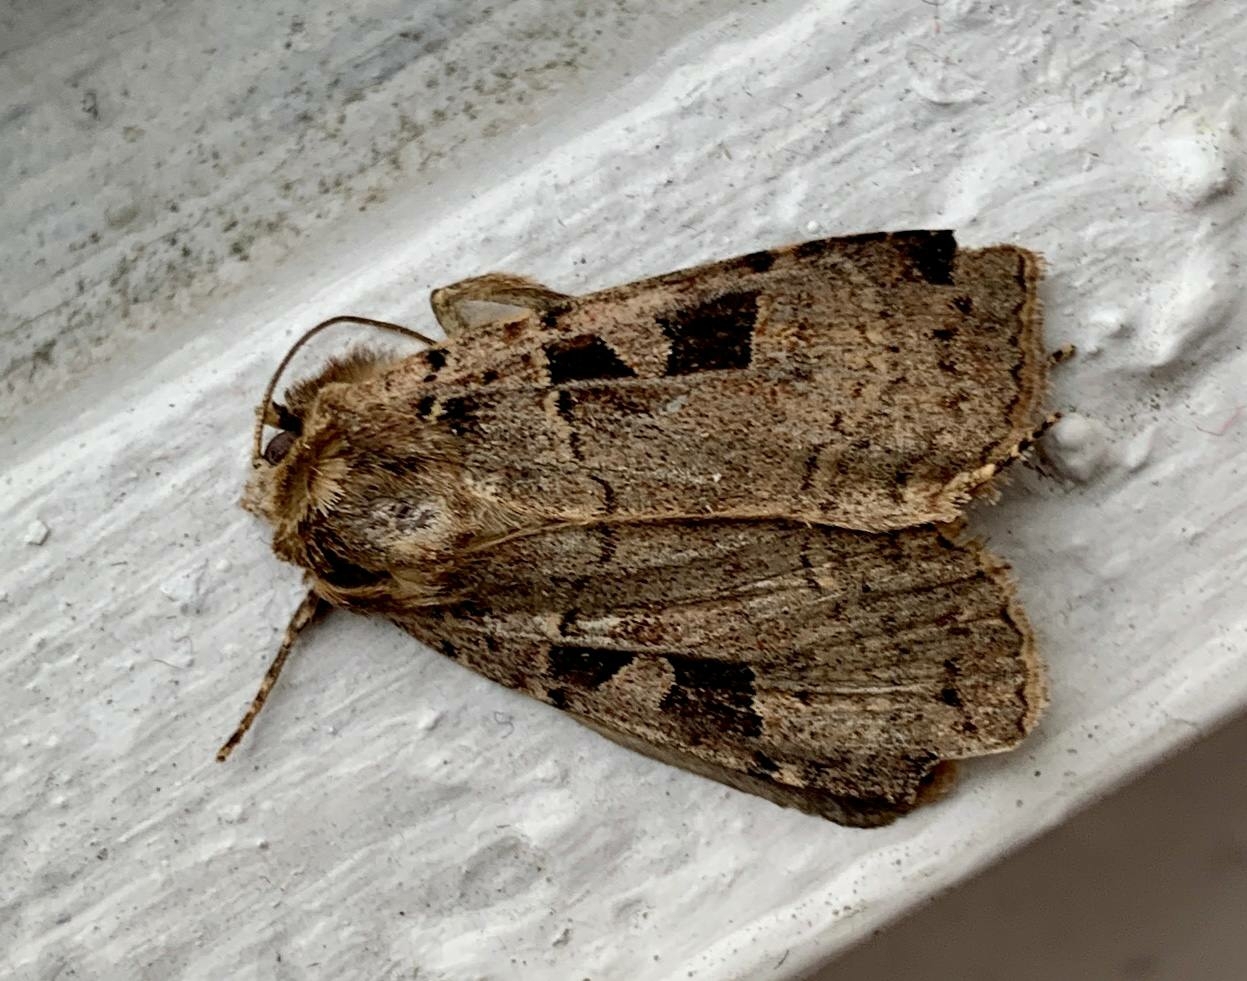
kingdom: Animalia
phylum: Arthropoda
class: Insecta
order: Lepidoptera
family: Noctuidae
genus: Xestia
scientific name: Xestia triangulum
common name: Double square-spot
